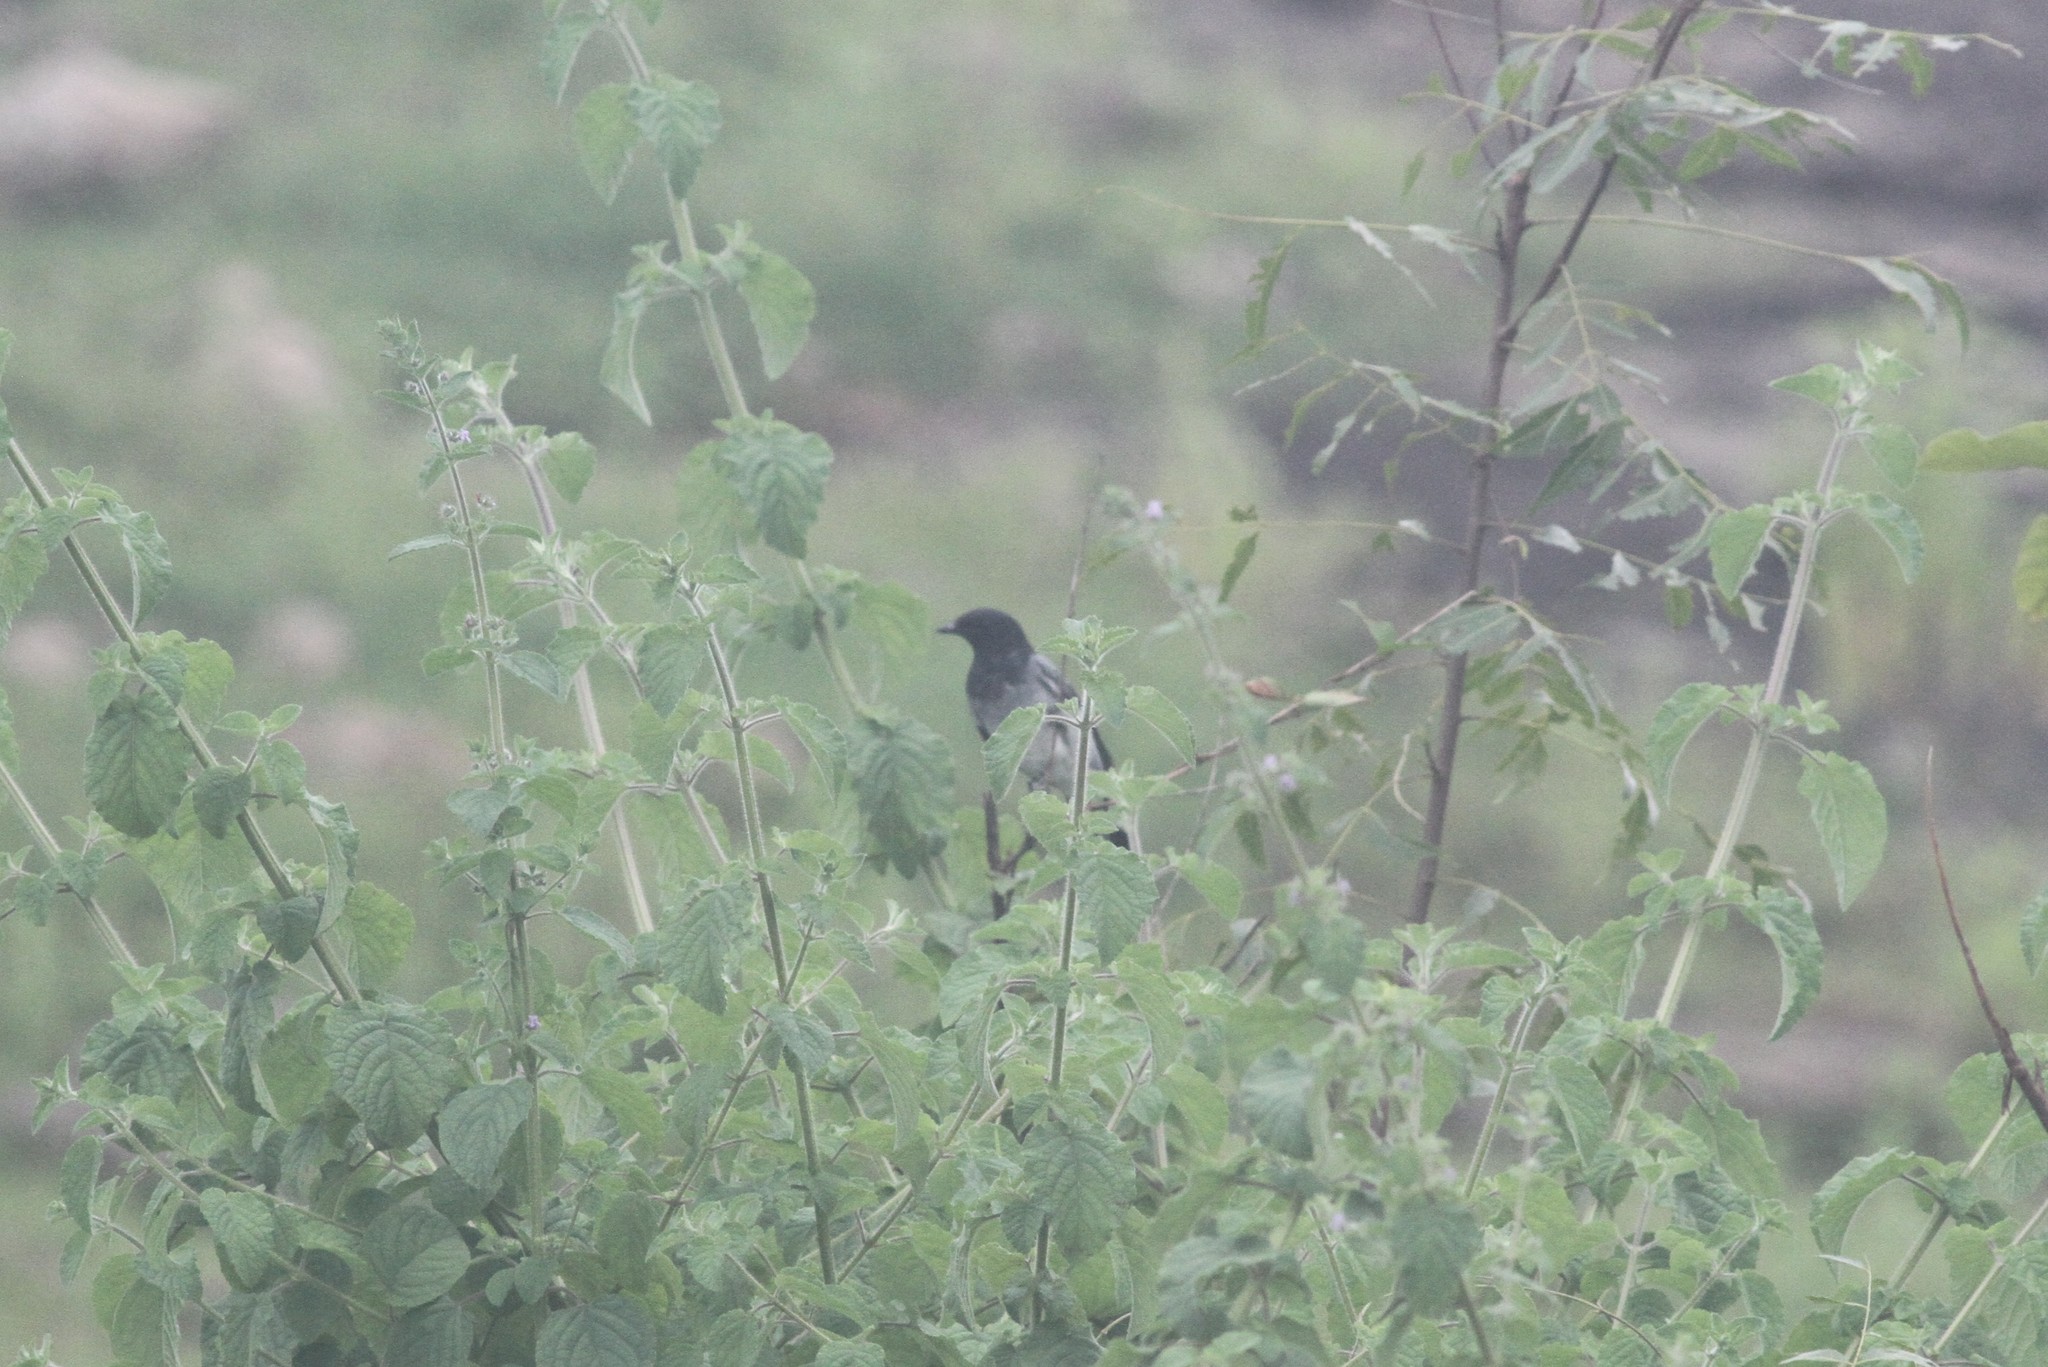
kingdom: Animalia
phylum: Chordata
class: Aves
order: Passeriformes
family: Campephagidae
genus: Coracina
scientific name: Coracina melanoptera
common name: Black-headed cuckooshrike
